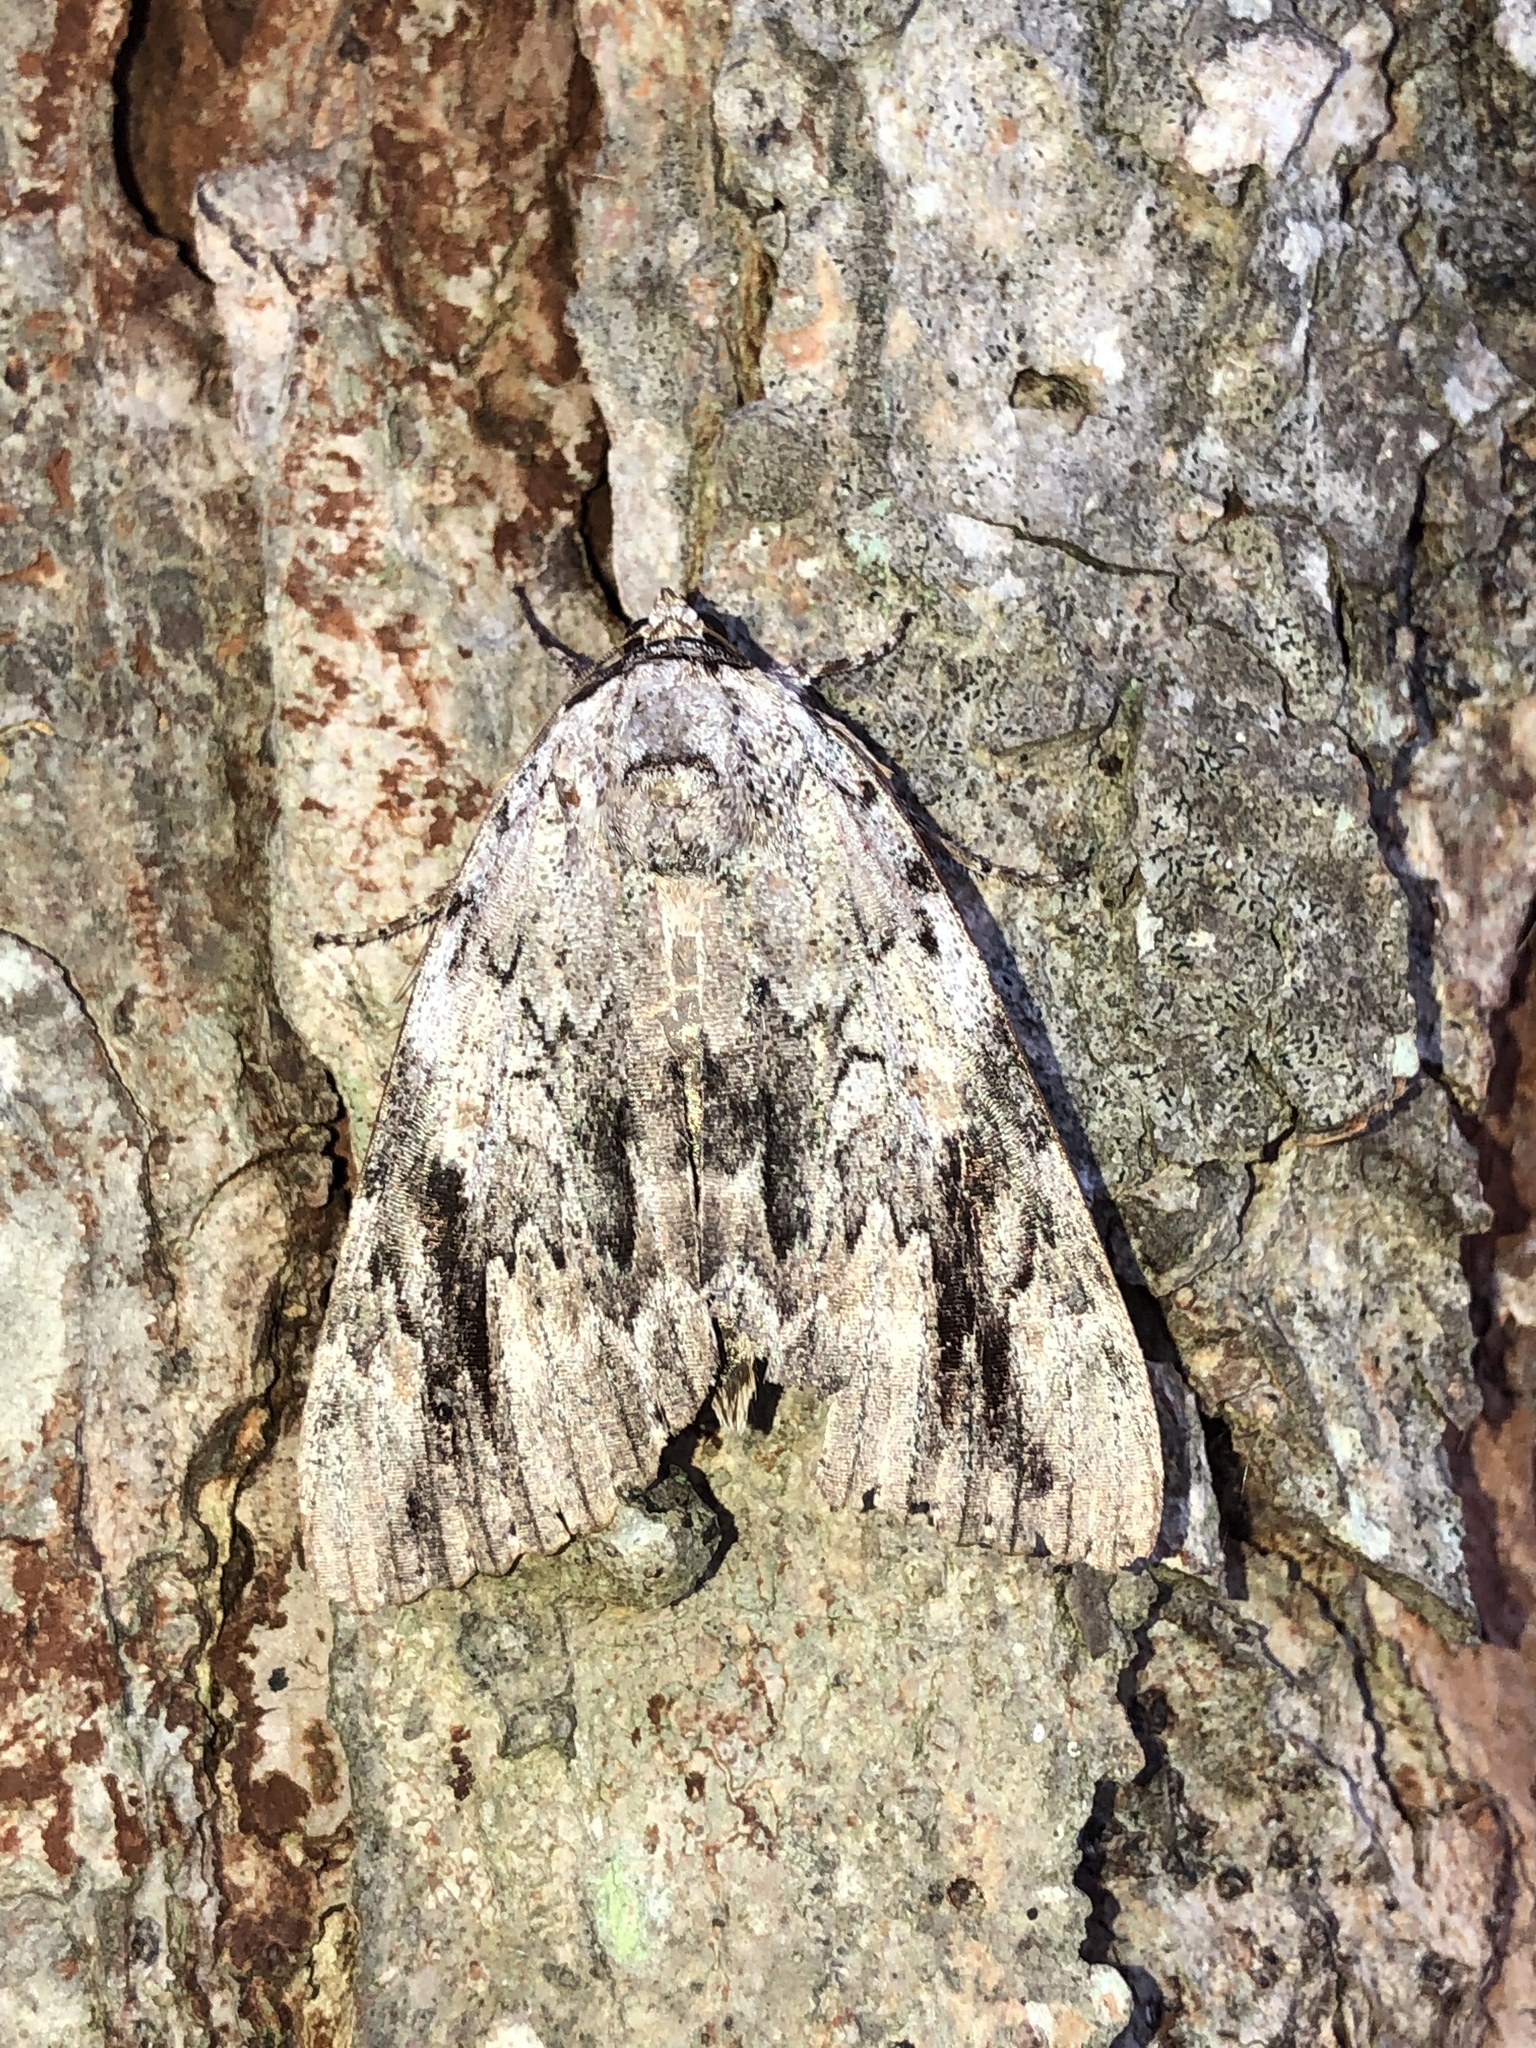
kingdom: Animalia
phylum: Arthropoda
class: Insecta
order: Lepidoptera
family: Erebidae
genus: Catocala
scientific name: Catocala maestosa
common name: Sad underwing
